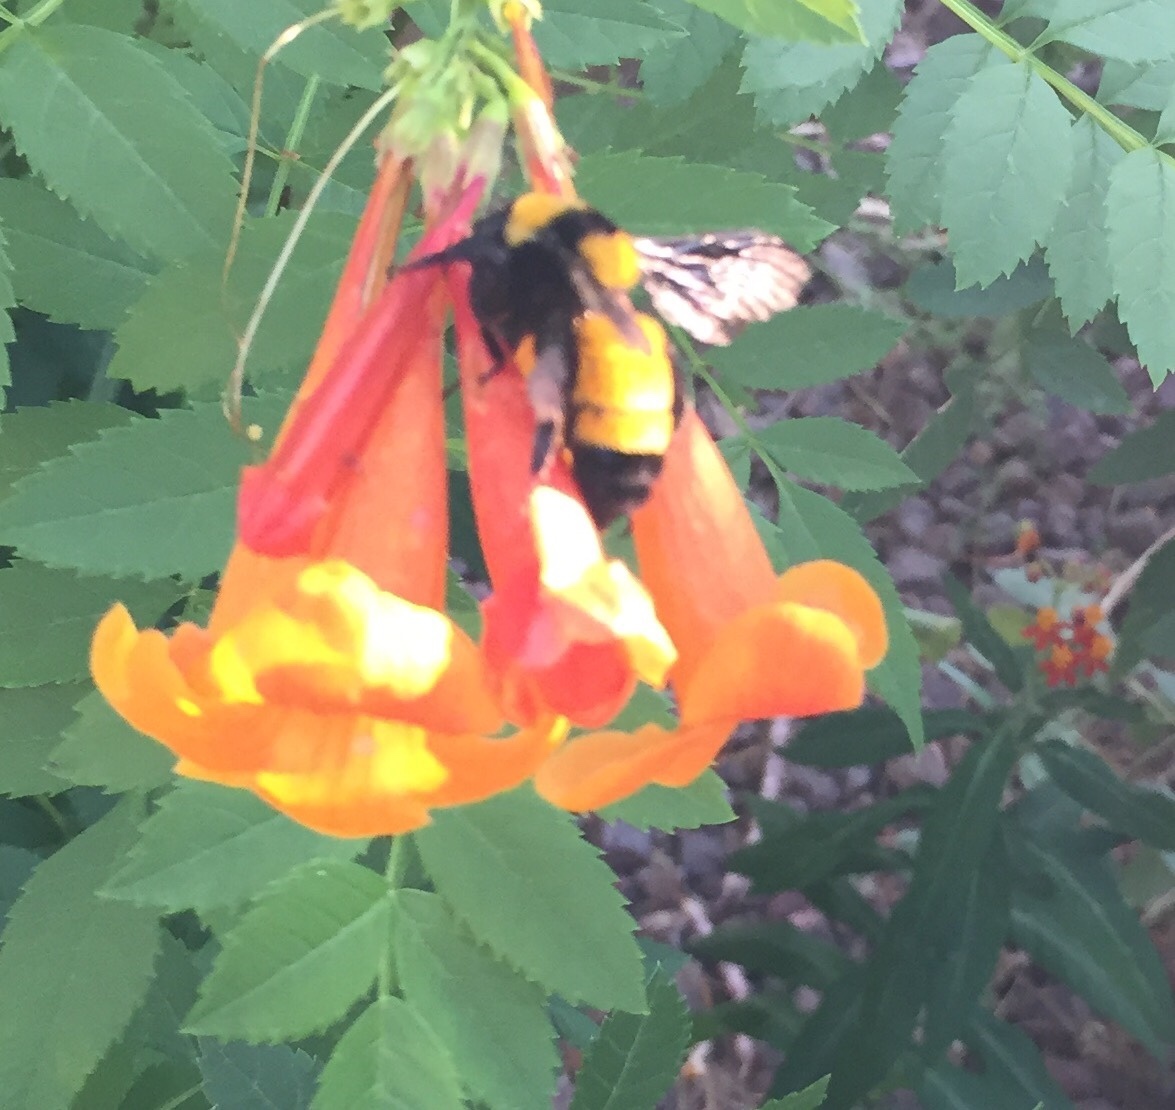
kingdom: Animalia
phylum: Arthropoda
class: Insecta
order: Hymenoptera
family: Apidae
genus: Bombus
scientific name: Bombus sonorus
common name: Sonoran bumble bee
